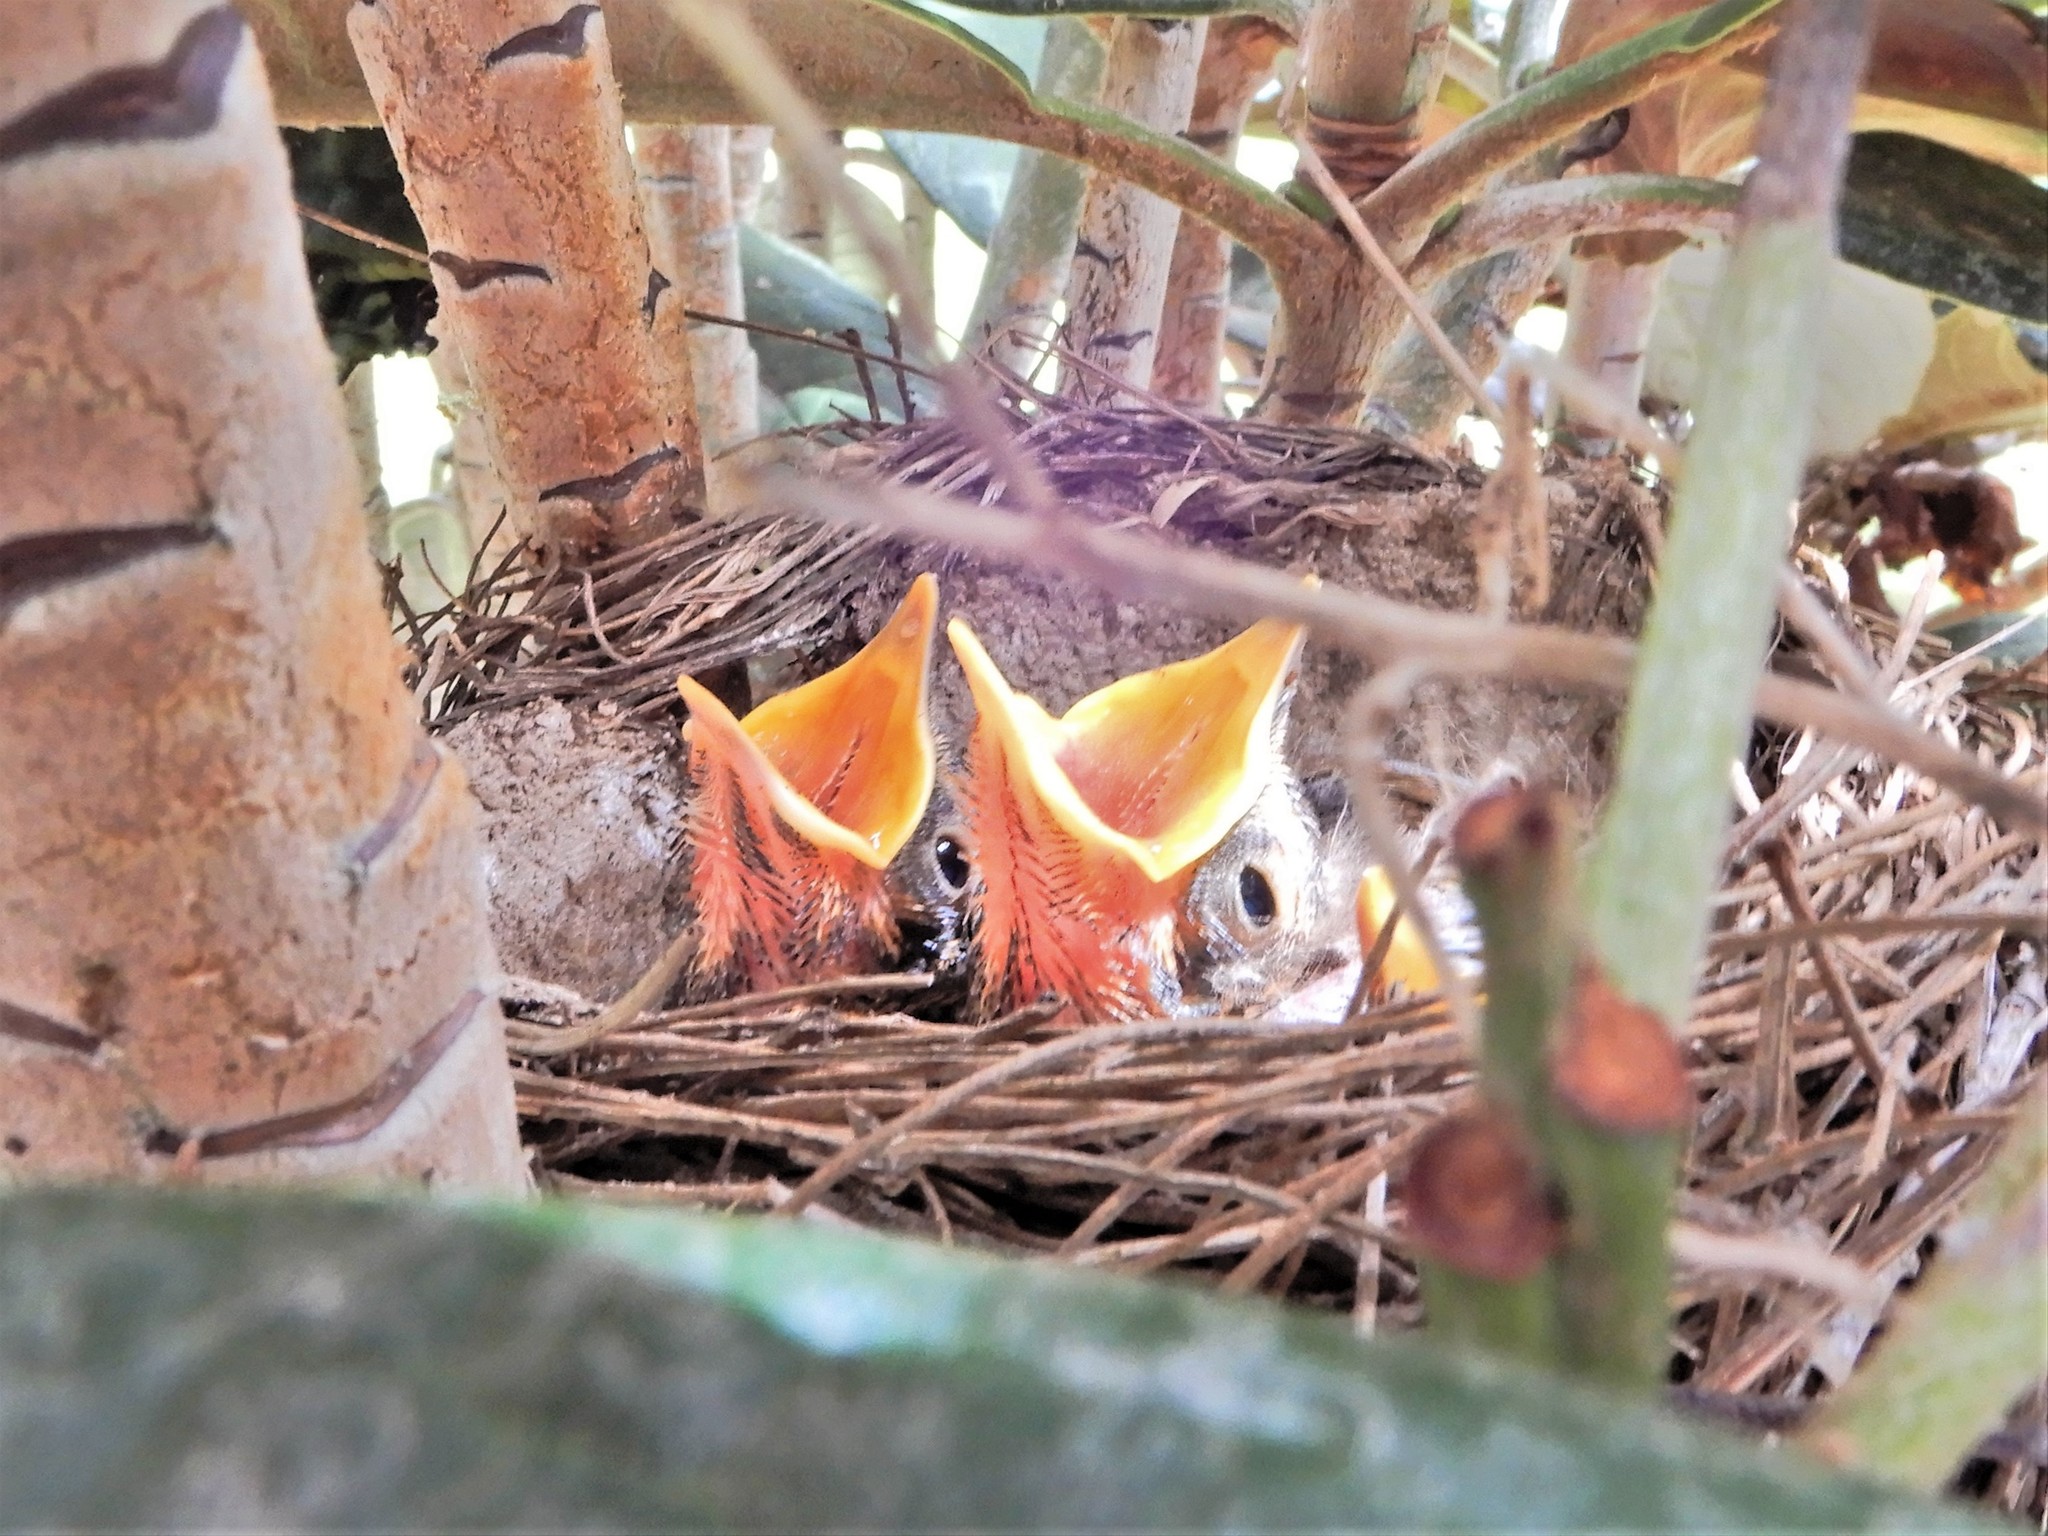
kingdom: Animalia
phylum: Chordata
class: Aves
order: Passeriformes
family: Turdidae
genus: Turdus
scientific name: Turdus philomelos
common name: Song thrush
